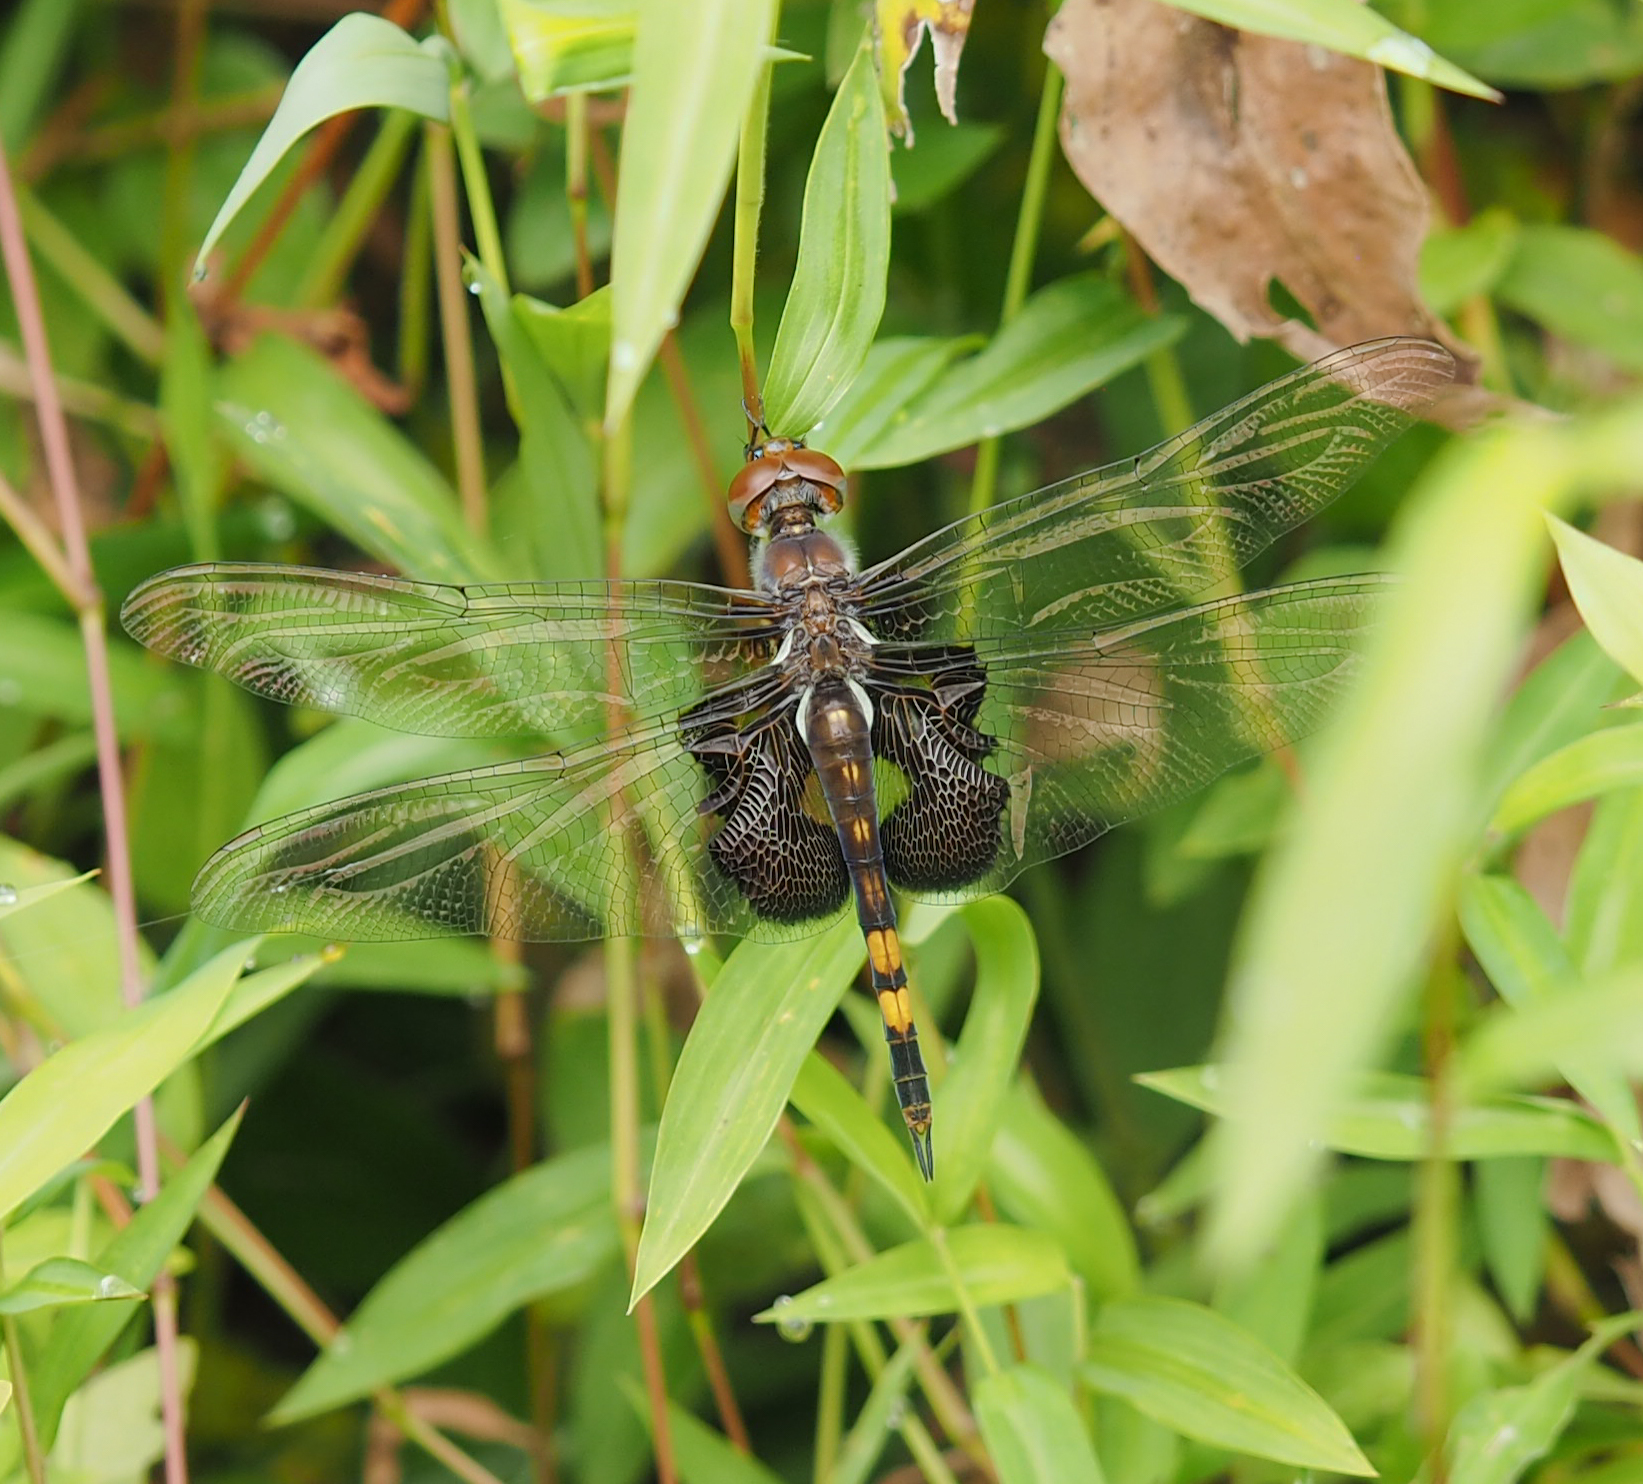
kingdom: Animalia
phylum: Arthropoda
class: Insecta
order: Odonata
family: Libellulidae
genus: Tramea
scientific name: Tramea lacerata
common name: Black saddlebags
